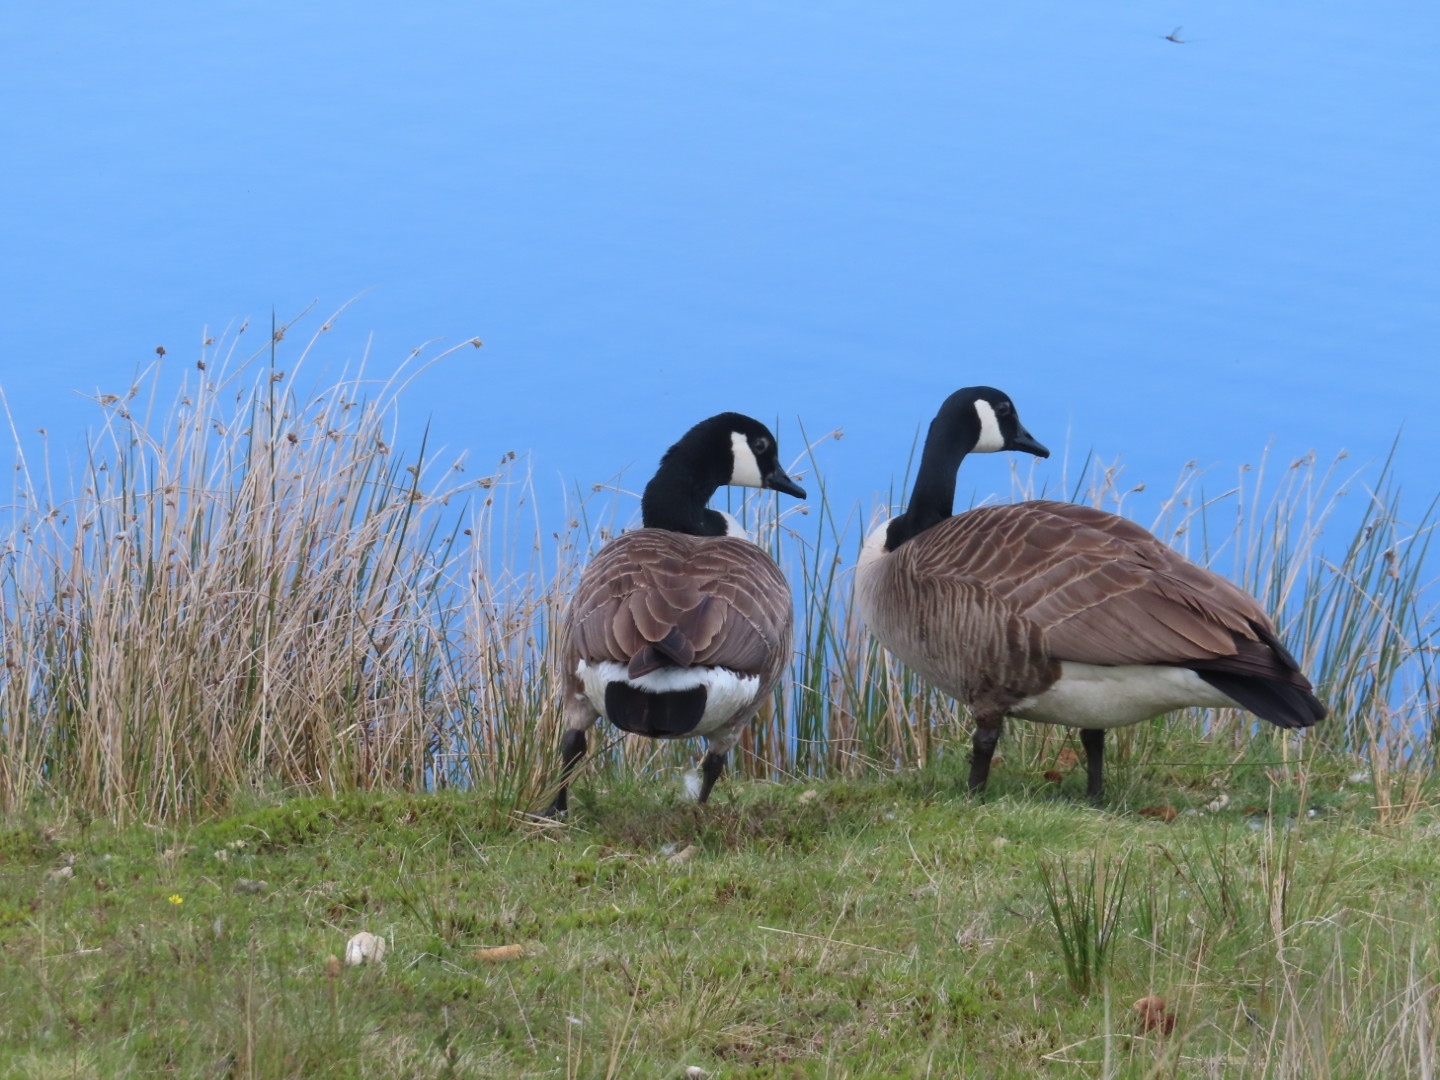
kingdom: Animalia
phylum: Chordata
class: Aves
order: Anseriformes
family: Anatidae
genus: Branta
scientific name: Branta canadensis
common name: Canada goose
